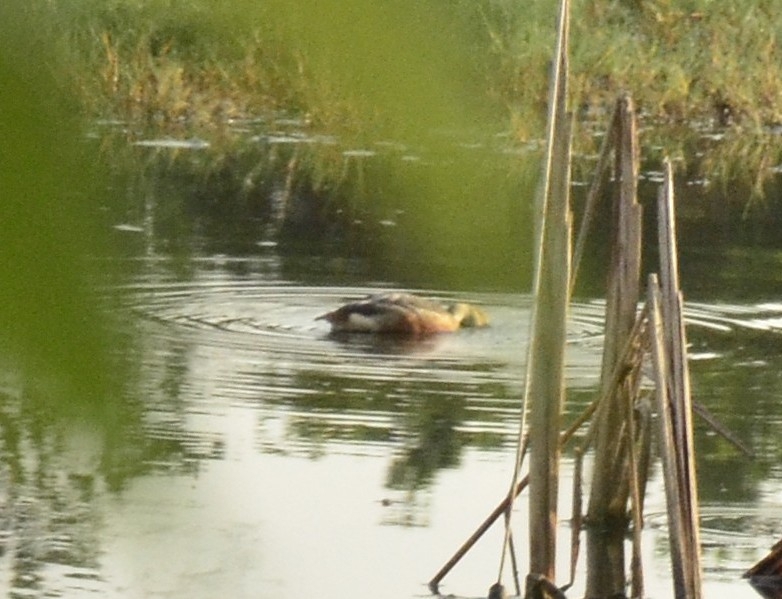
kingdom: Animalia
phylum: Chordata
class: Aves
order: Anseriformes
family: Anatidae
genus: Dendrocygna
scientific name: Dendrocygna javanica
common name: Lesser whistling-duck
